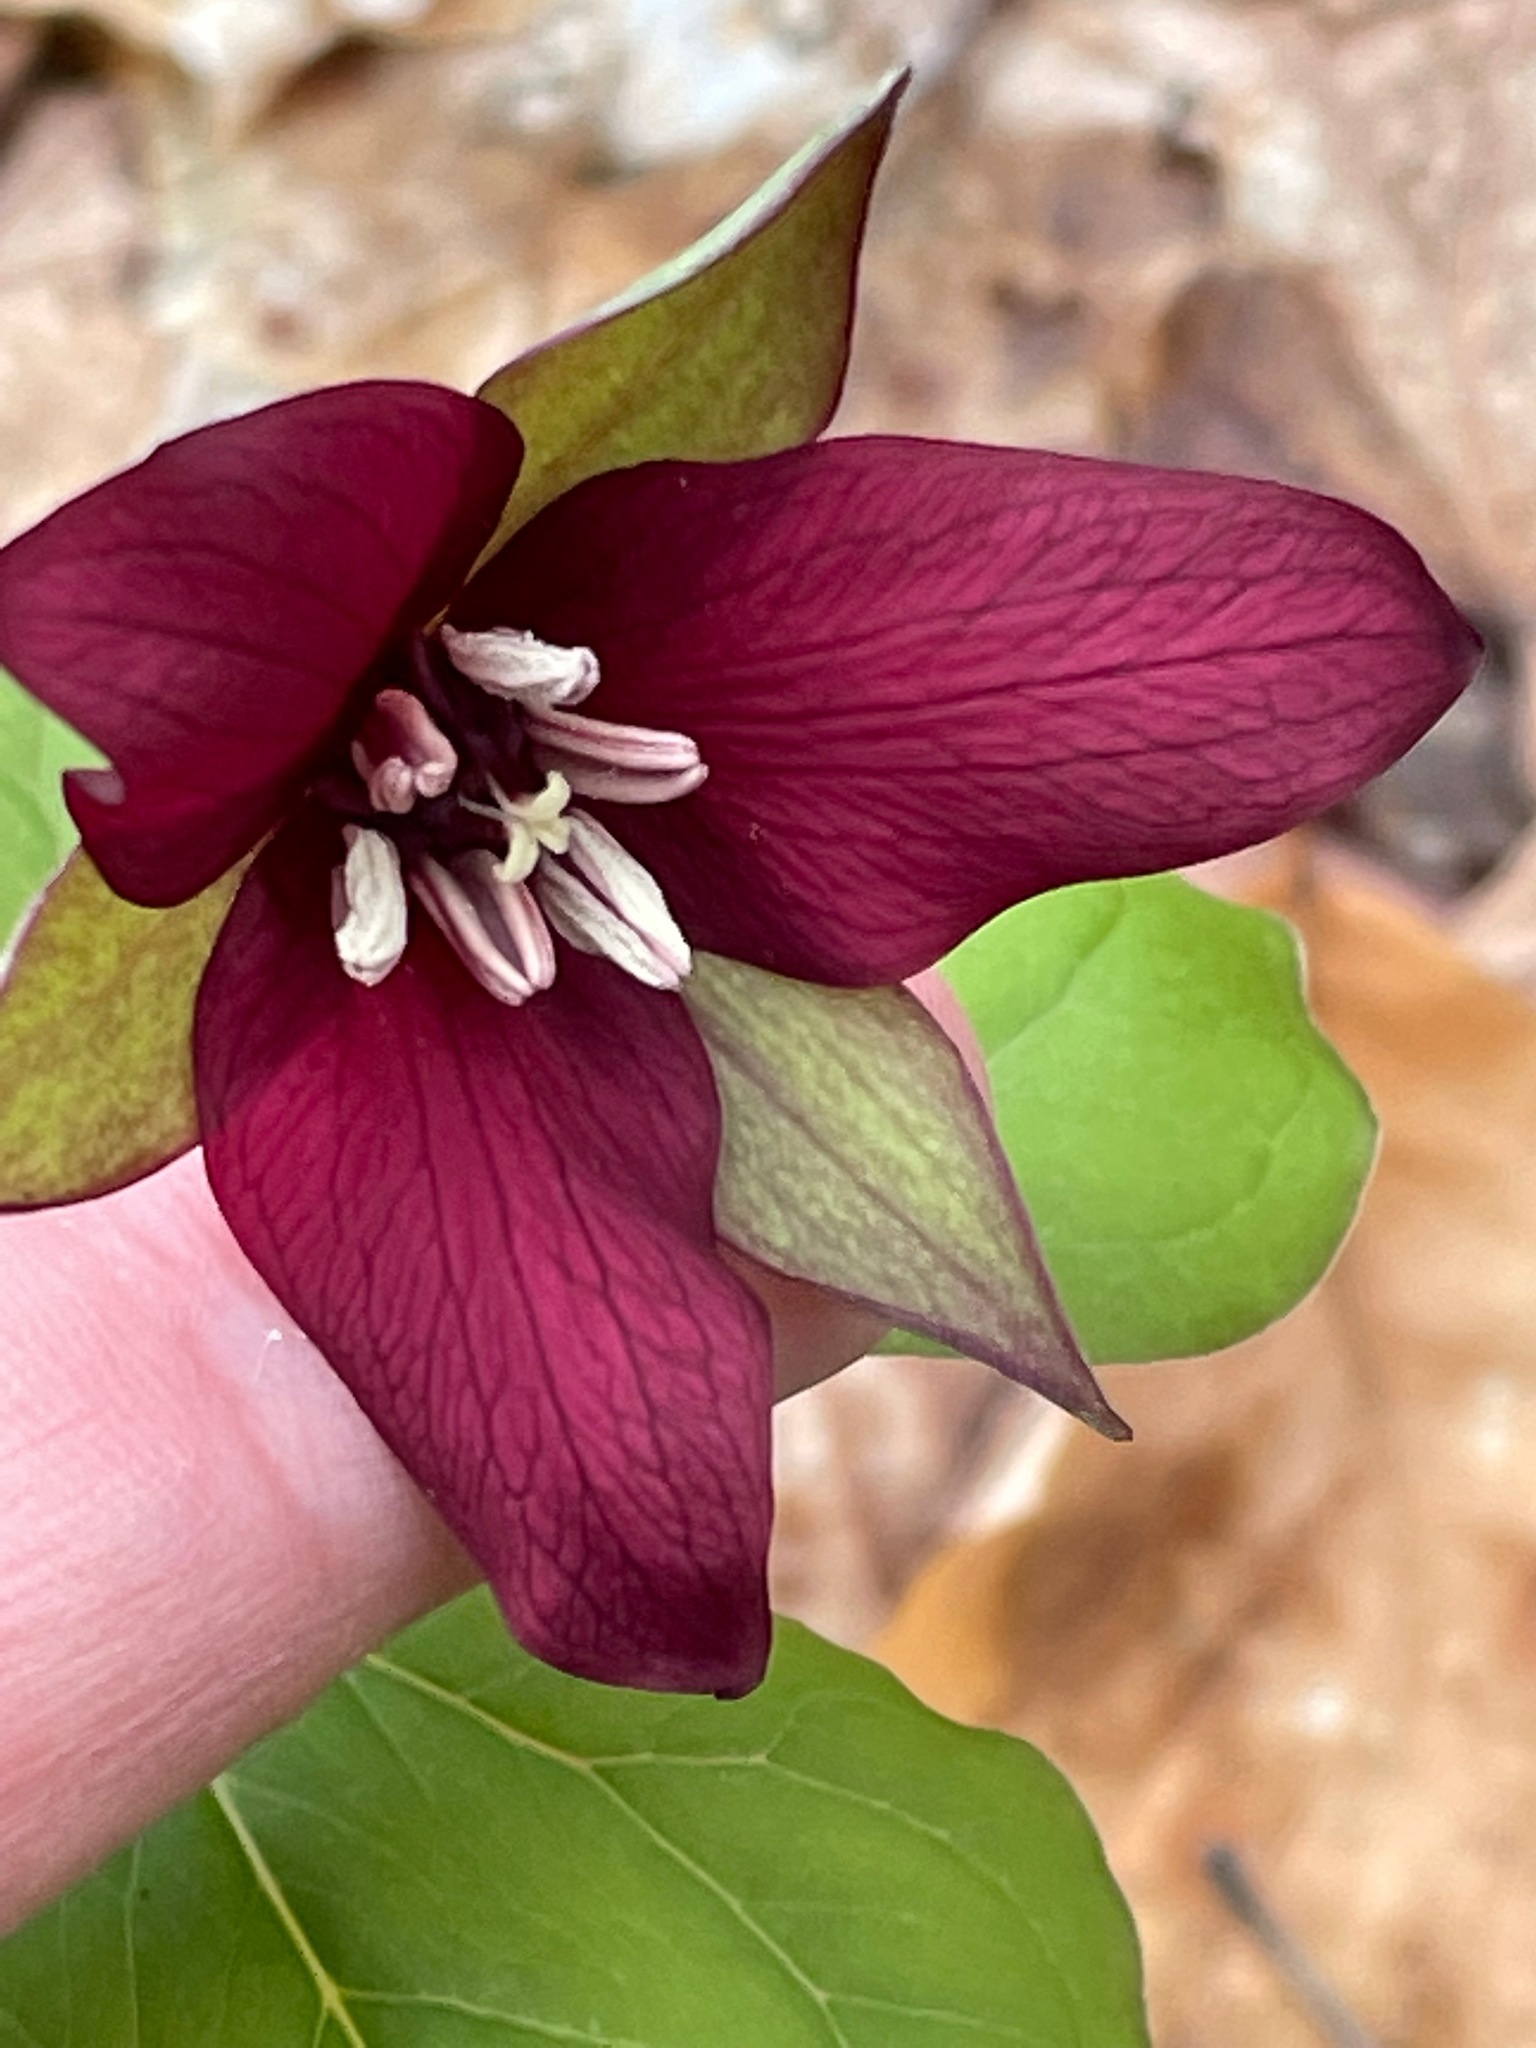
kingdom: Plantae
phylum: Tracheophyta
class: Liliopsida
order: Liliales
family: Melanthiaceae
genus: Trillium
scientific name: Trillium erectum
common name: Purple trillium
